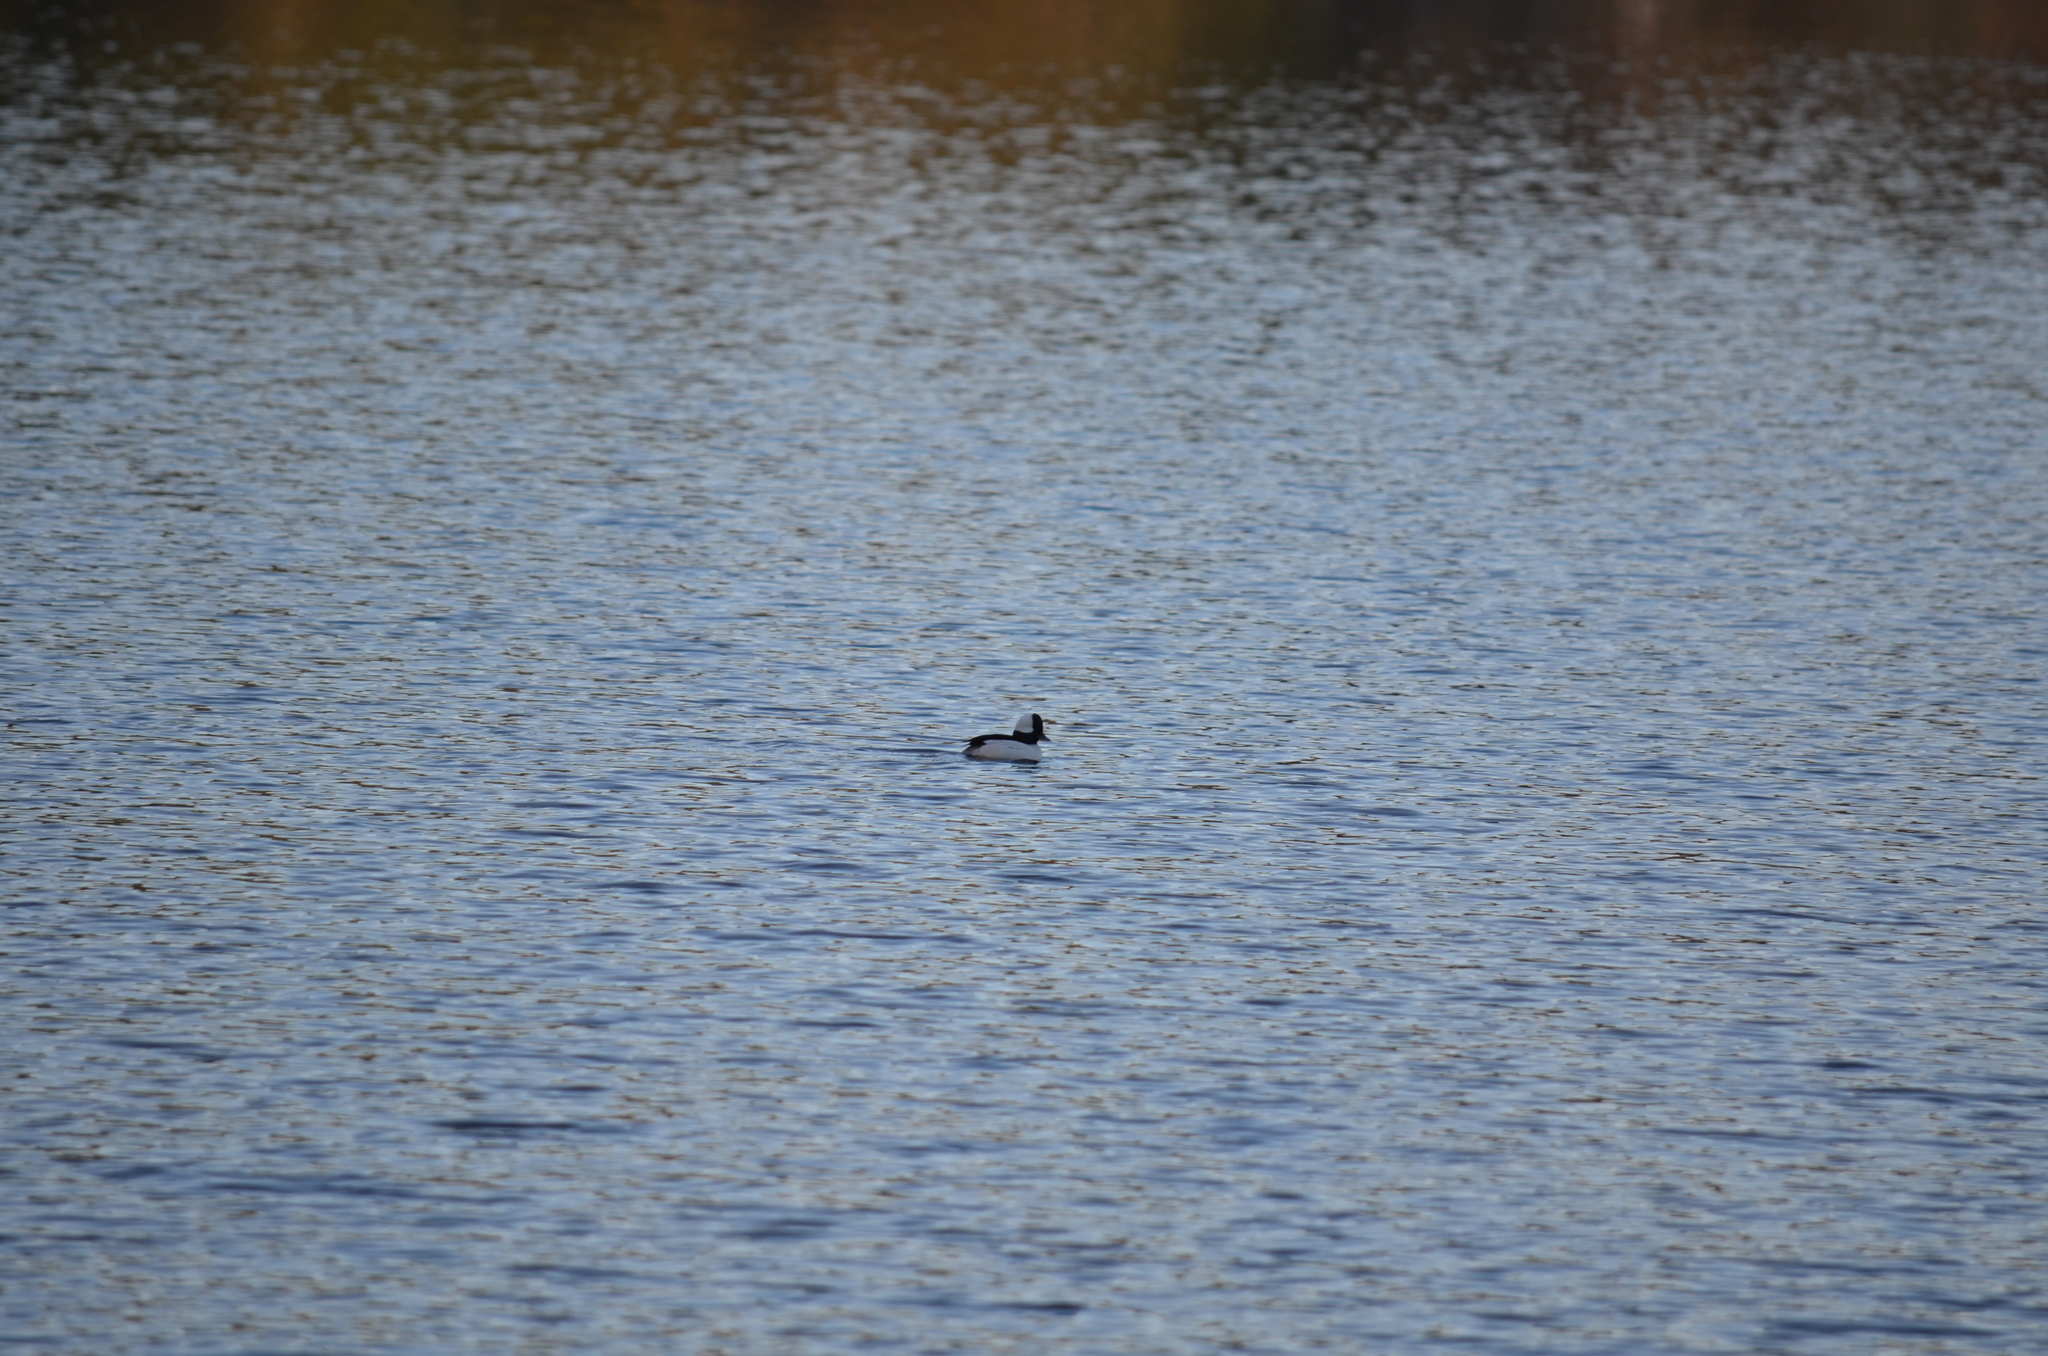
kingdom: Animalia
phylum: Chordata
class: Aves
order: Anseriformes
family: Anatidae
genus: Bucephala
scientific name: Bucephala albeola
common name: Bufflehead
